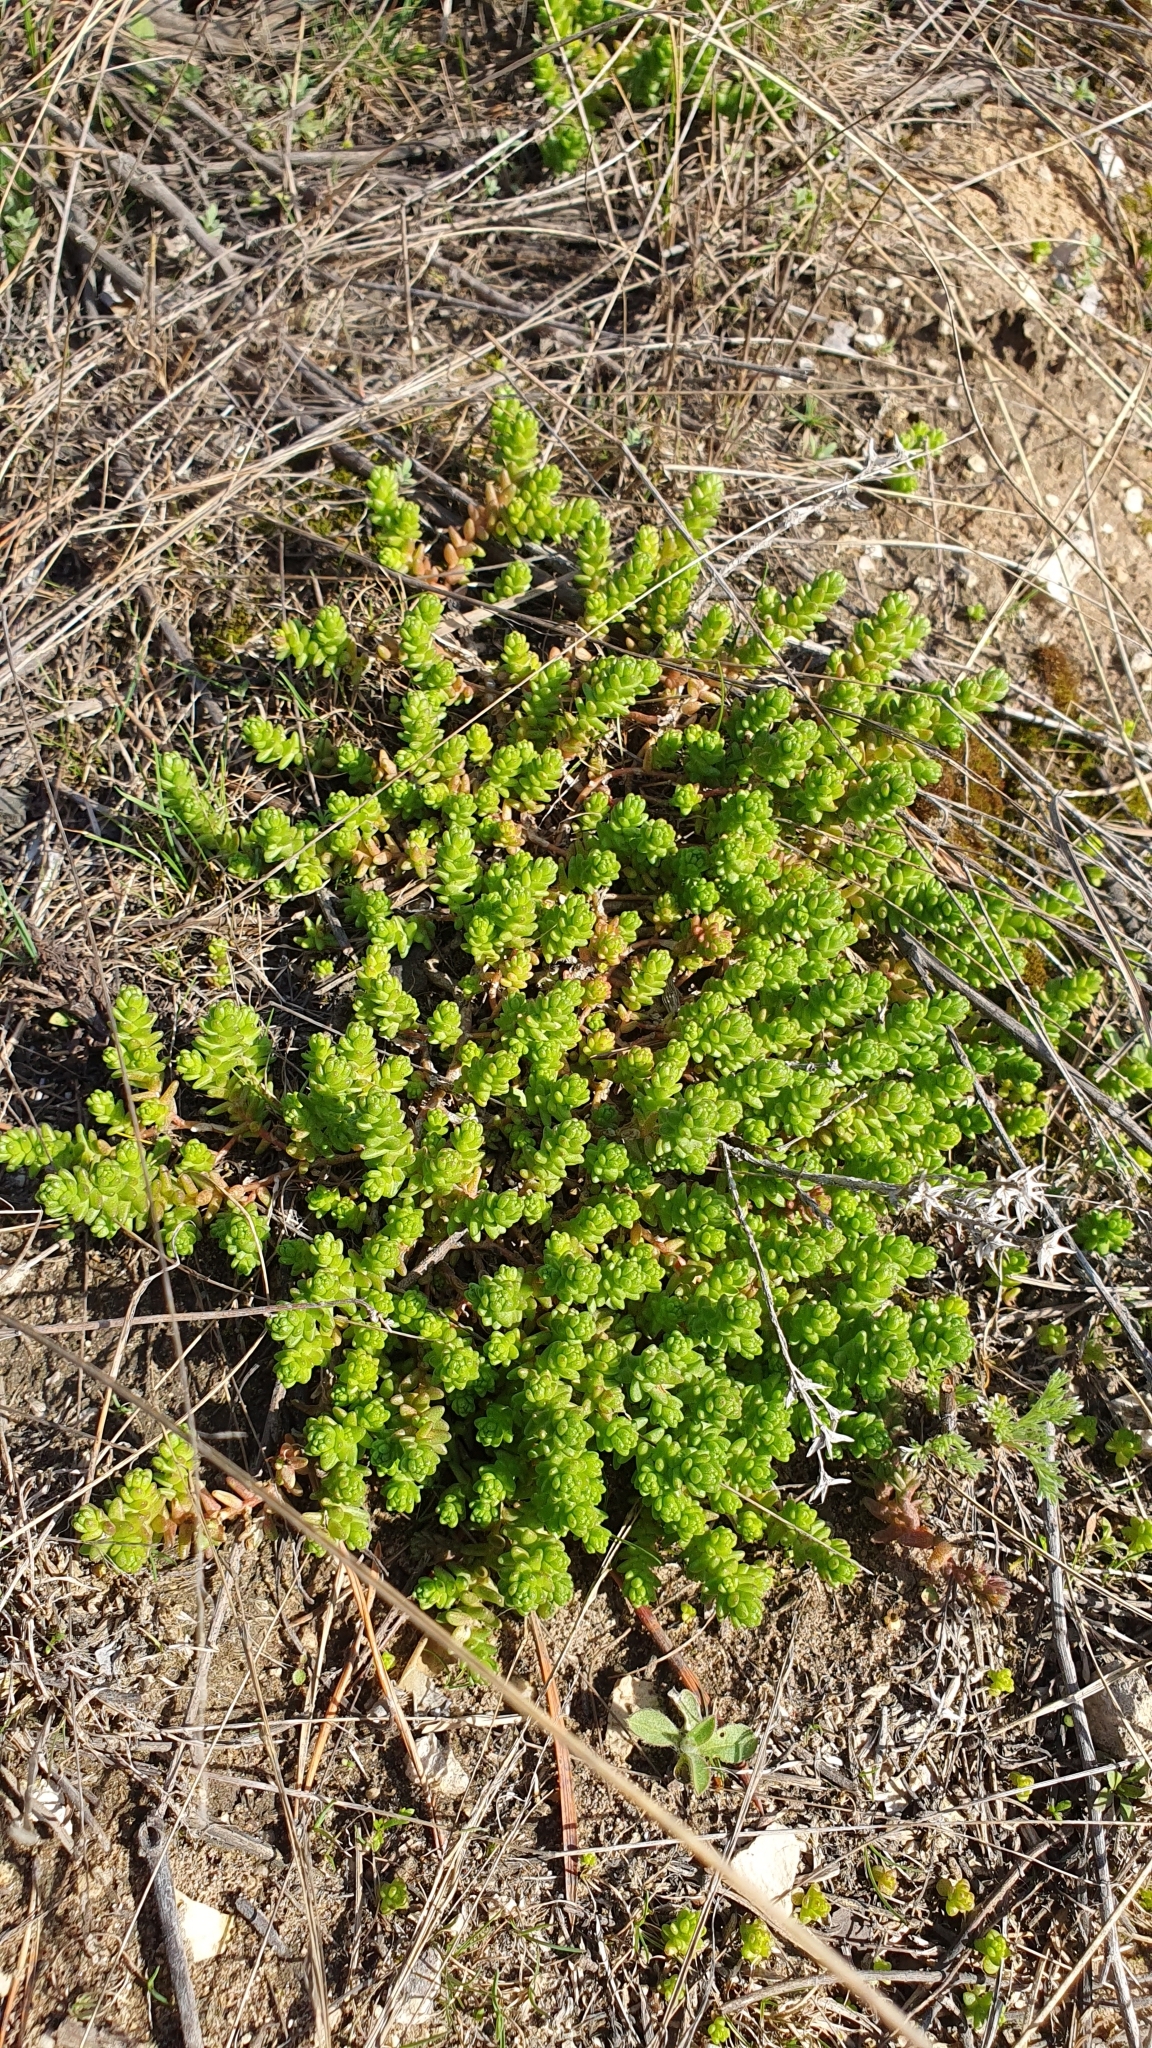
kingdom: Plantae
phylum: Tracheophyta
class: Magnoliopsida
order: Saxifragales
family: Crassulaceae
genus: Sedum
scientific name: Sedum acre
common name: Biting stonecrop
